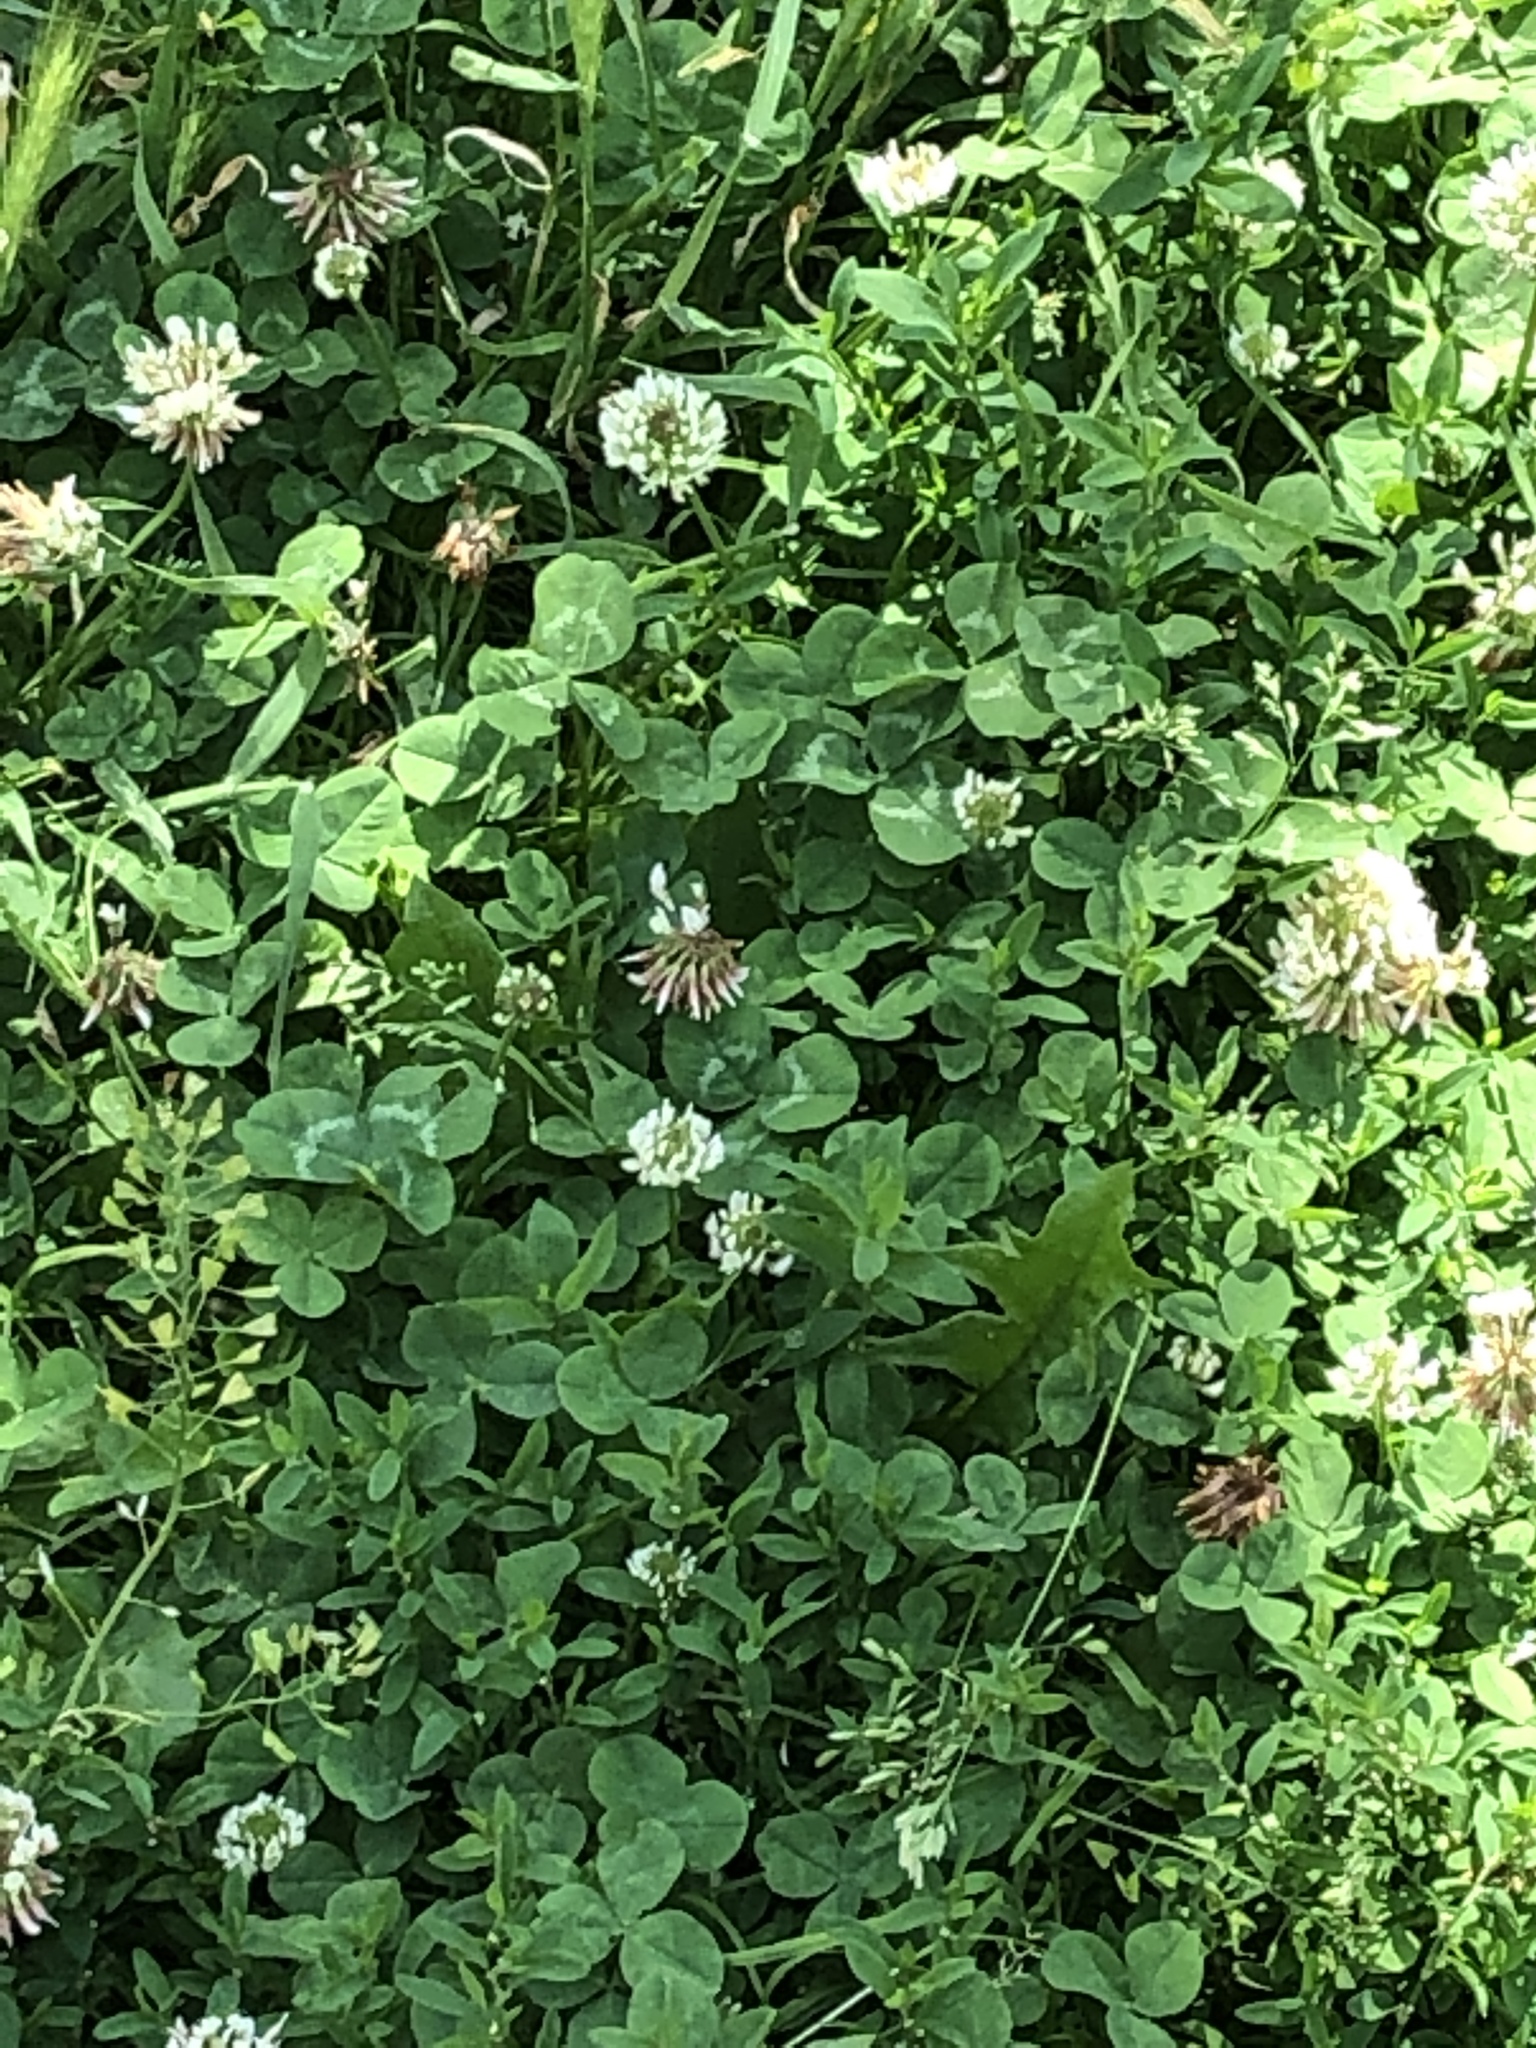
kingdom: Plantae
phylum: Tracheophyta
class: Magnoliopsida
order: Fabales
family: Fabaceae
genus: Trifolium
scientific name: Trifolium repens
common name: White clover
